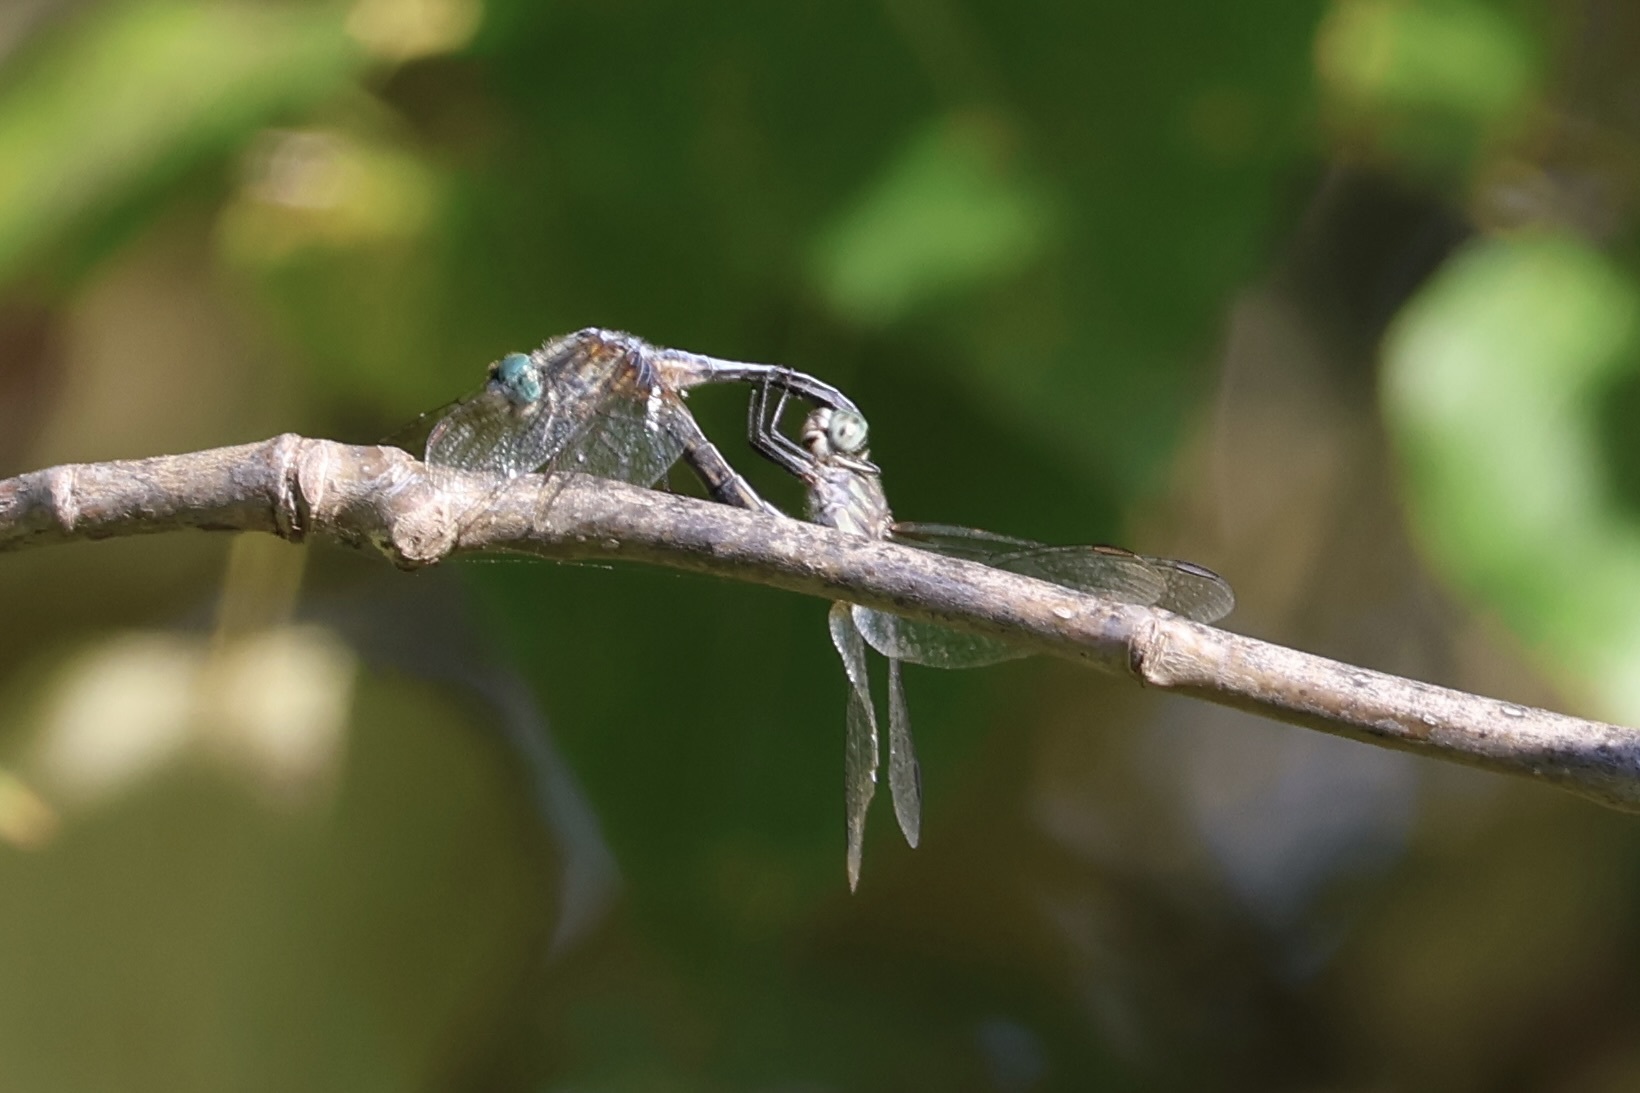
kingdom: Animalia
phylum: Arthropoda
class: Insecta
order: Odonata
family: Libellulidae
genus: Pachydiplax
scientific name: Pachydiplax longipennis
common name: Blue dasher
